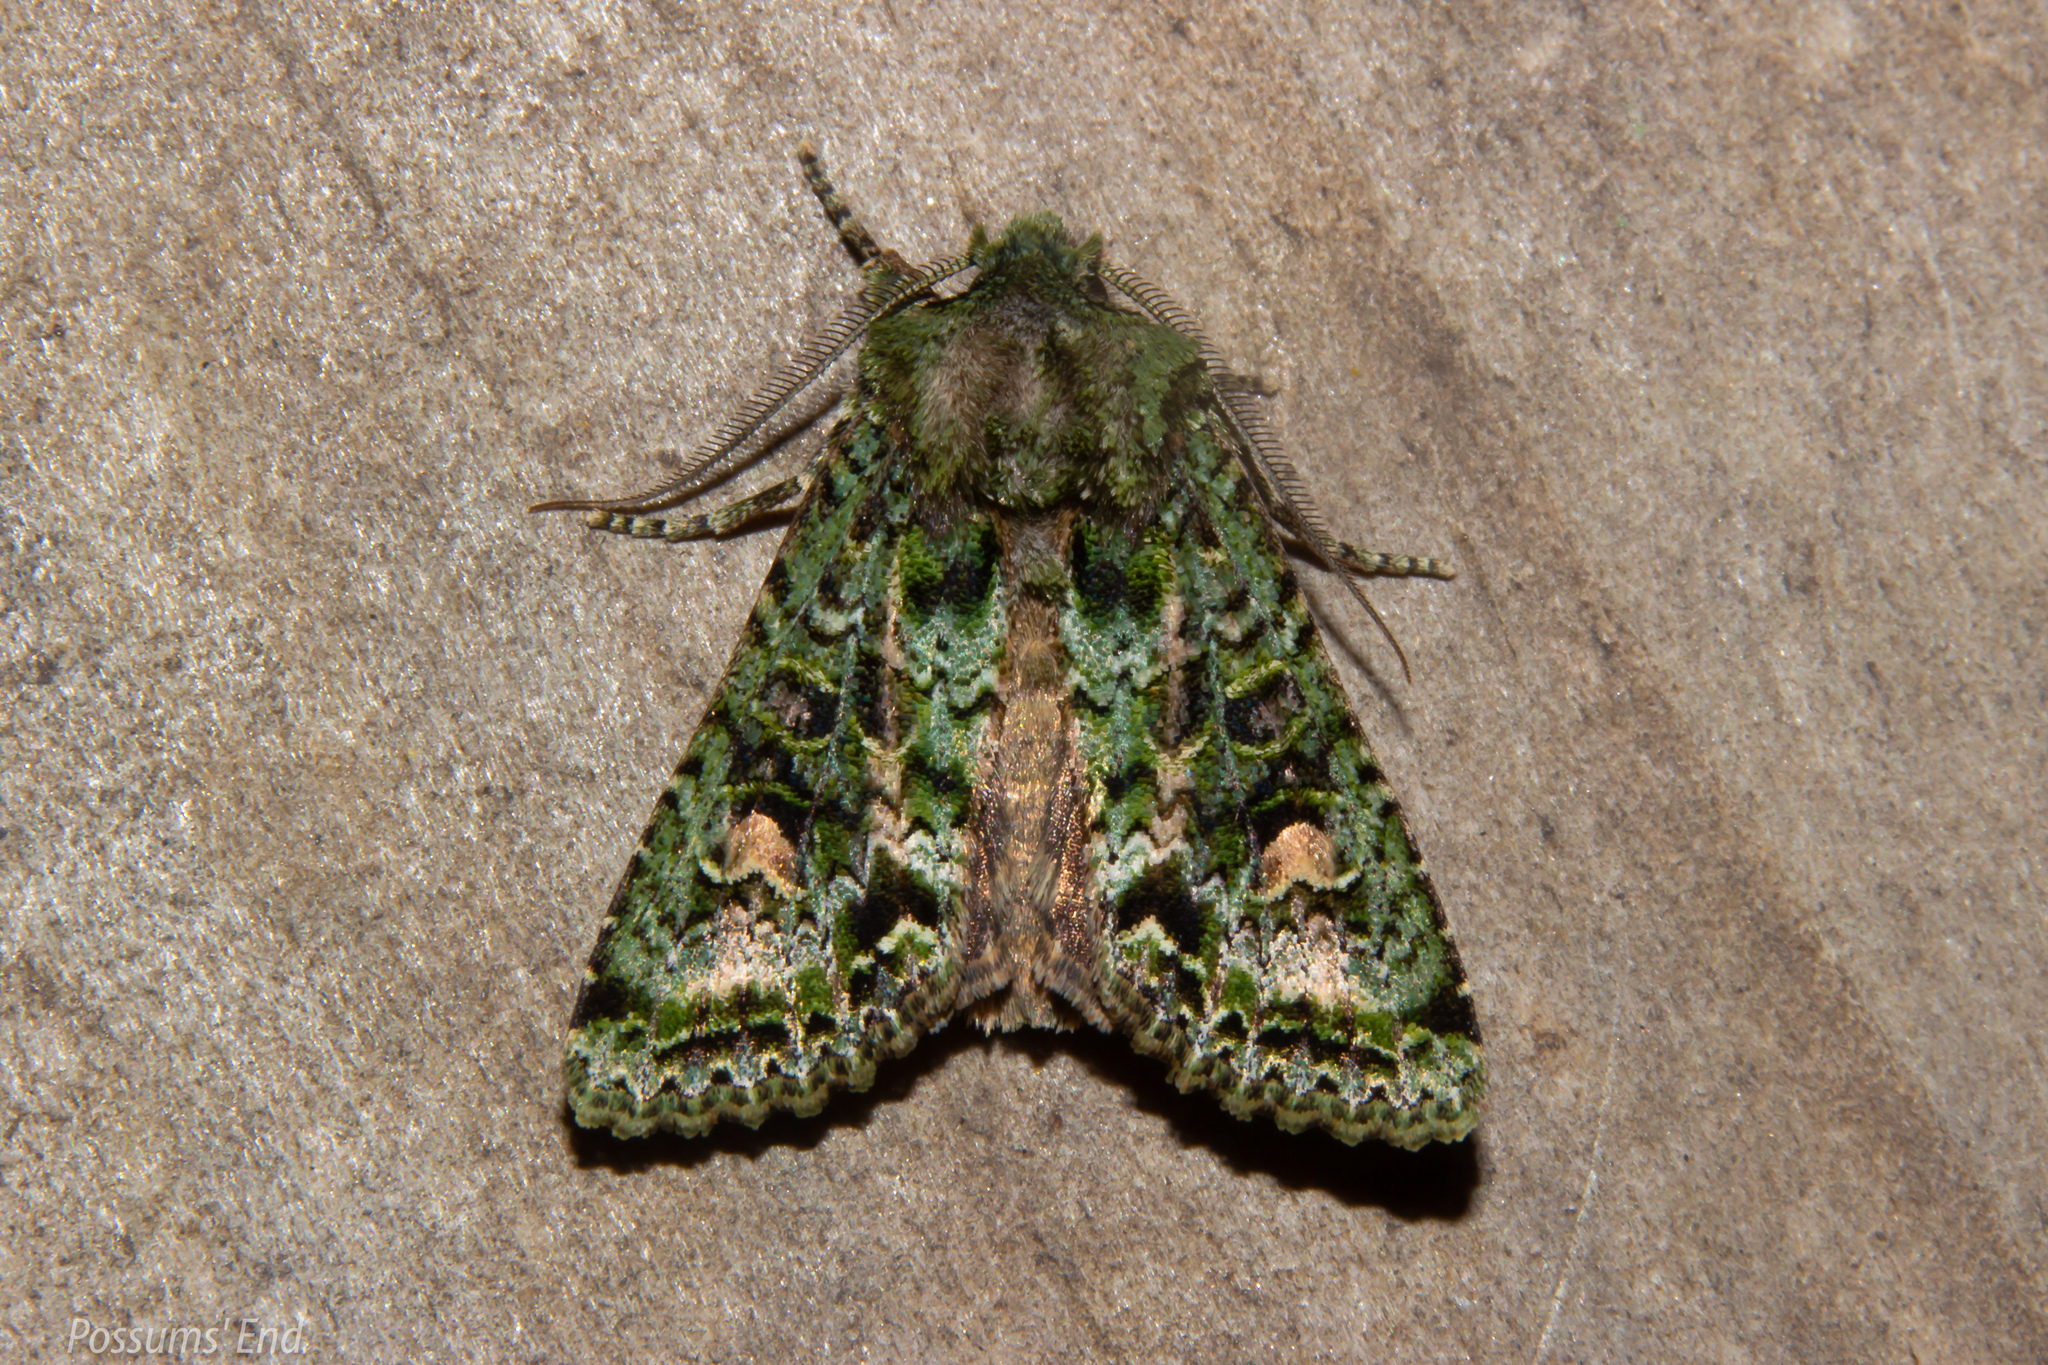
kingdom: Animalia
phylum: Arthropoda
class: Insecta
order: Lepidoptera
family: Noctuidae
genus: Ichneutica
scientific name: Ichneutica
